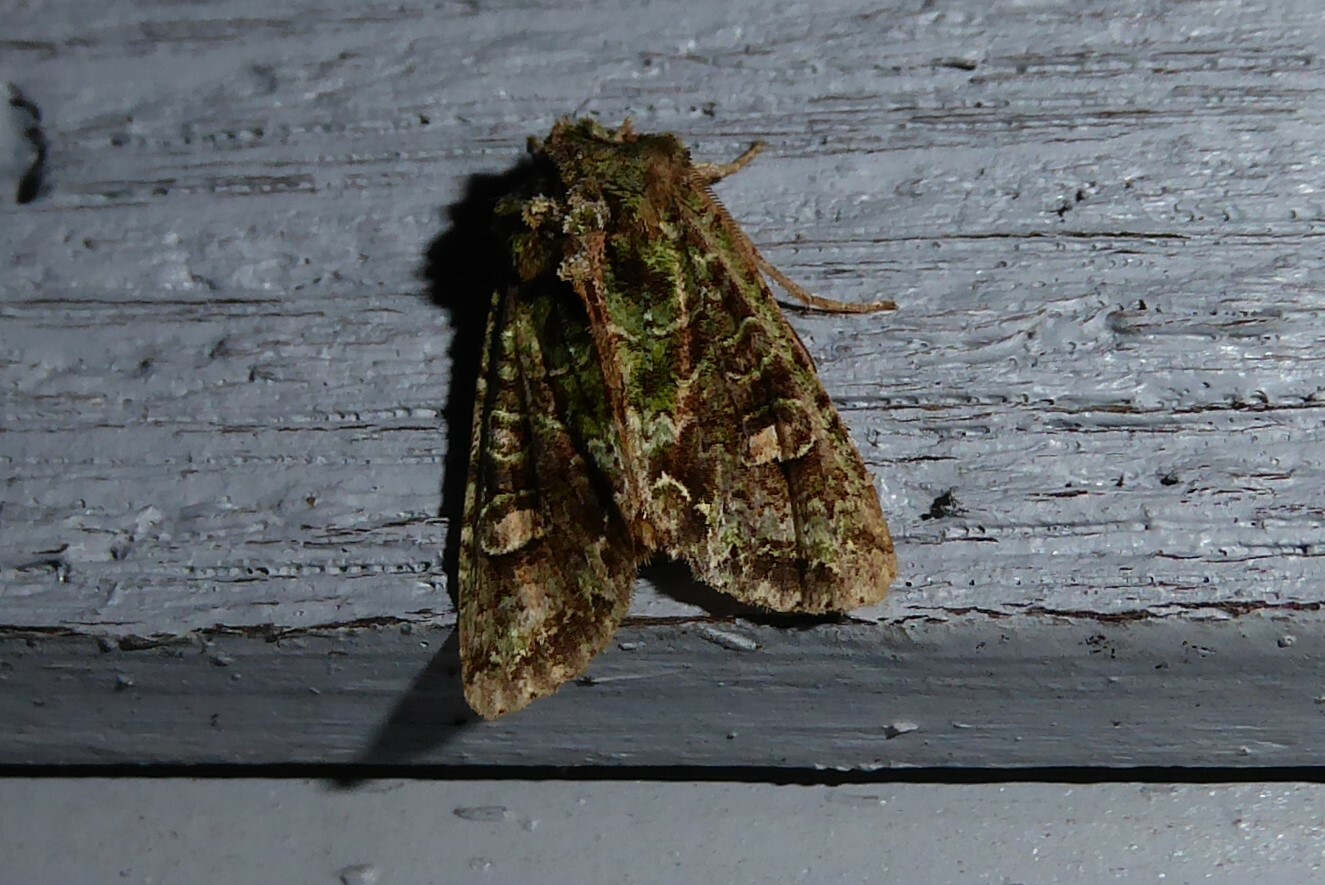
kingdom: Animalia
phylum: Arthropoda
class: Insecta
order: Lepidoptera
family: Noctuidae
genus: Ichneutica
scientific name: Ichneutica
